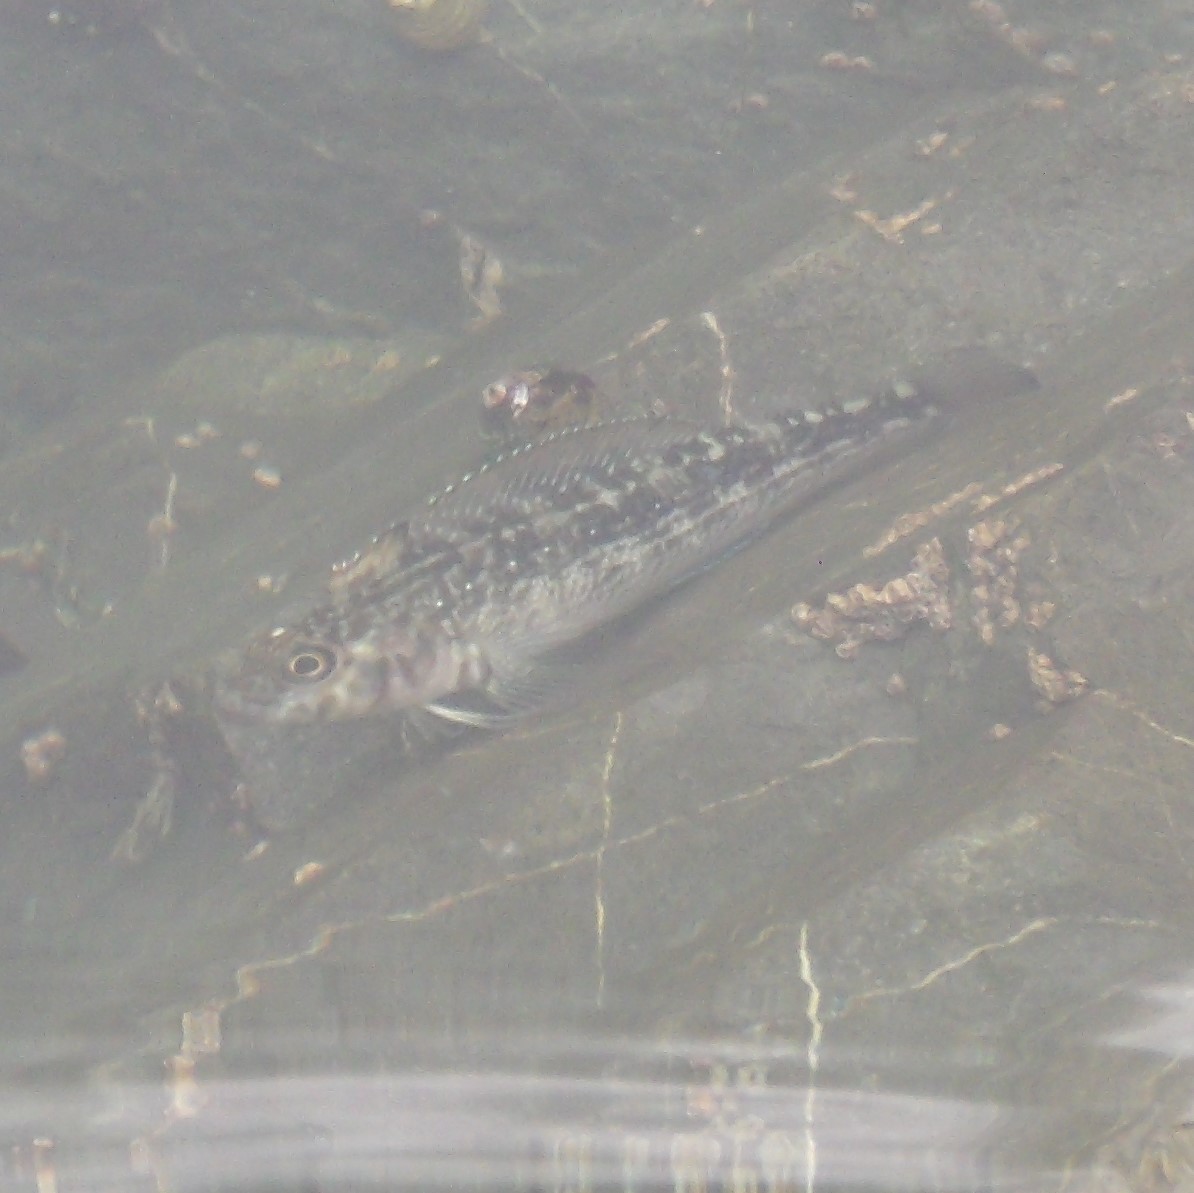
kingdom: Animalia
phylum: Chordata
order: Perciformes
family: Tripterygiidae
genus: Forsterygion
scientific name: Forsterygion varium
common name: Variable triplefin
